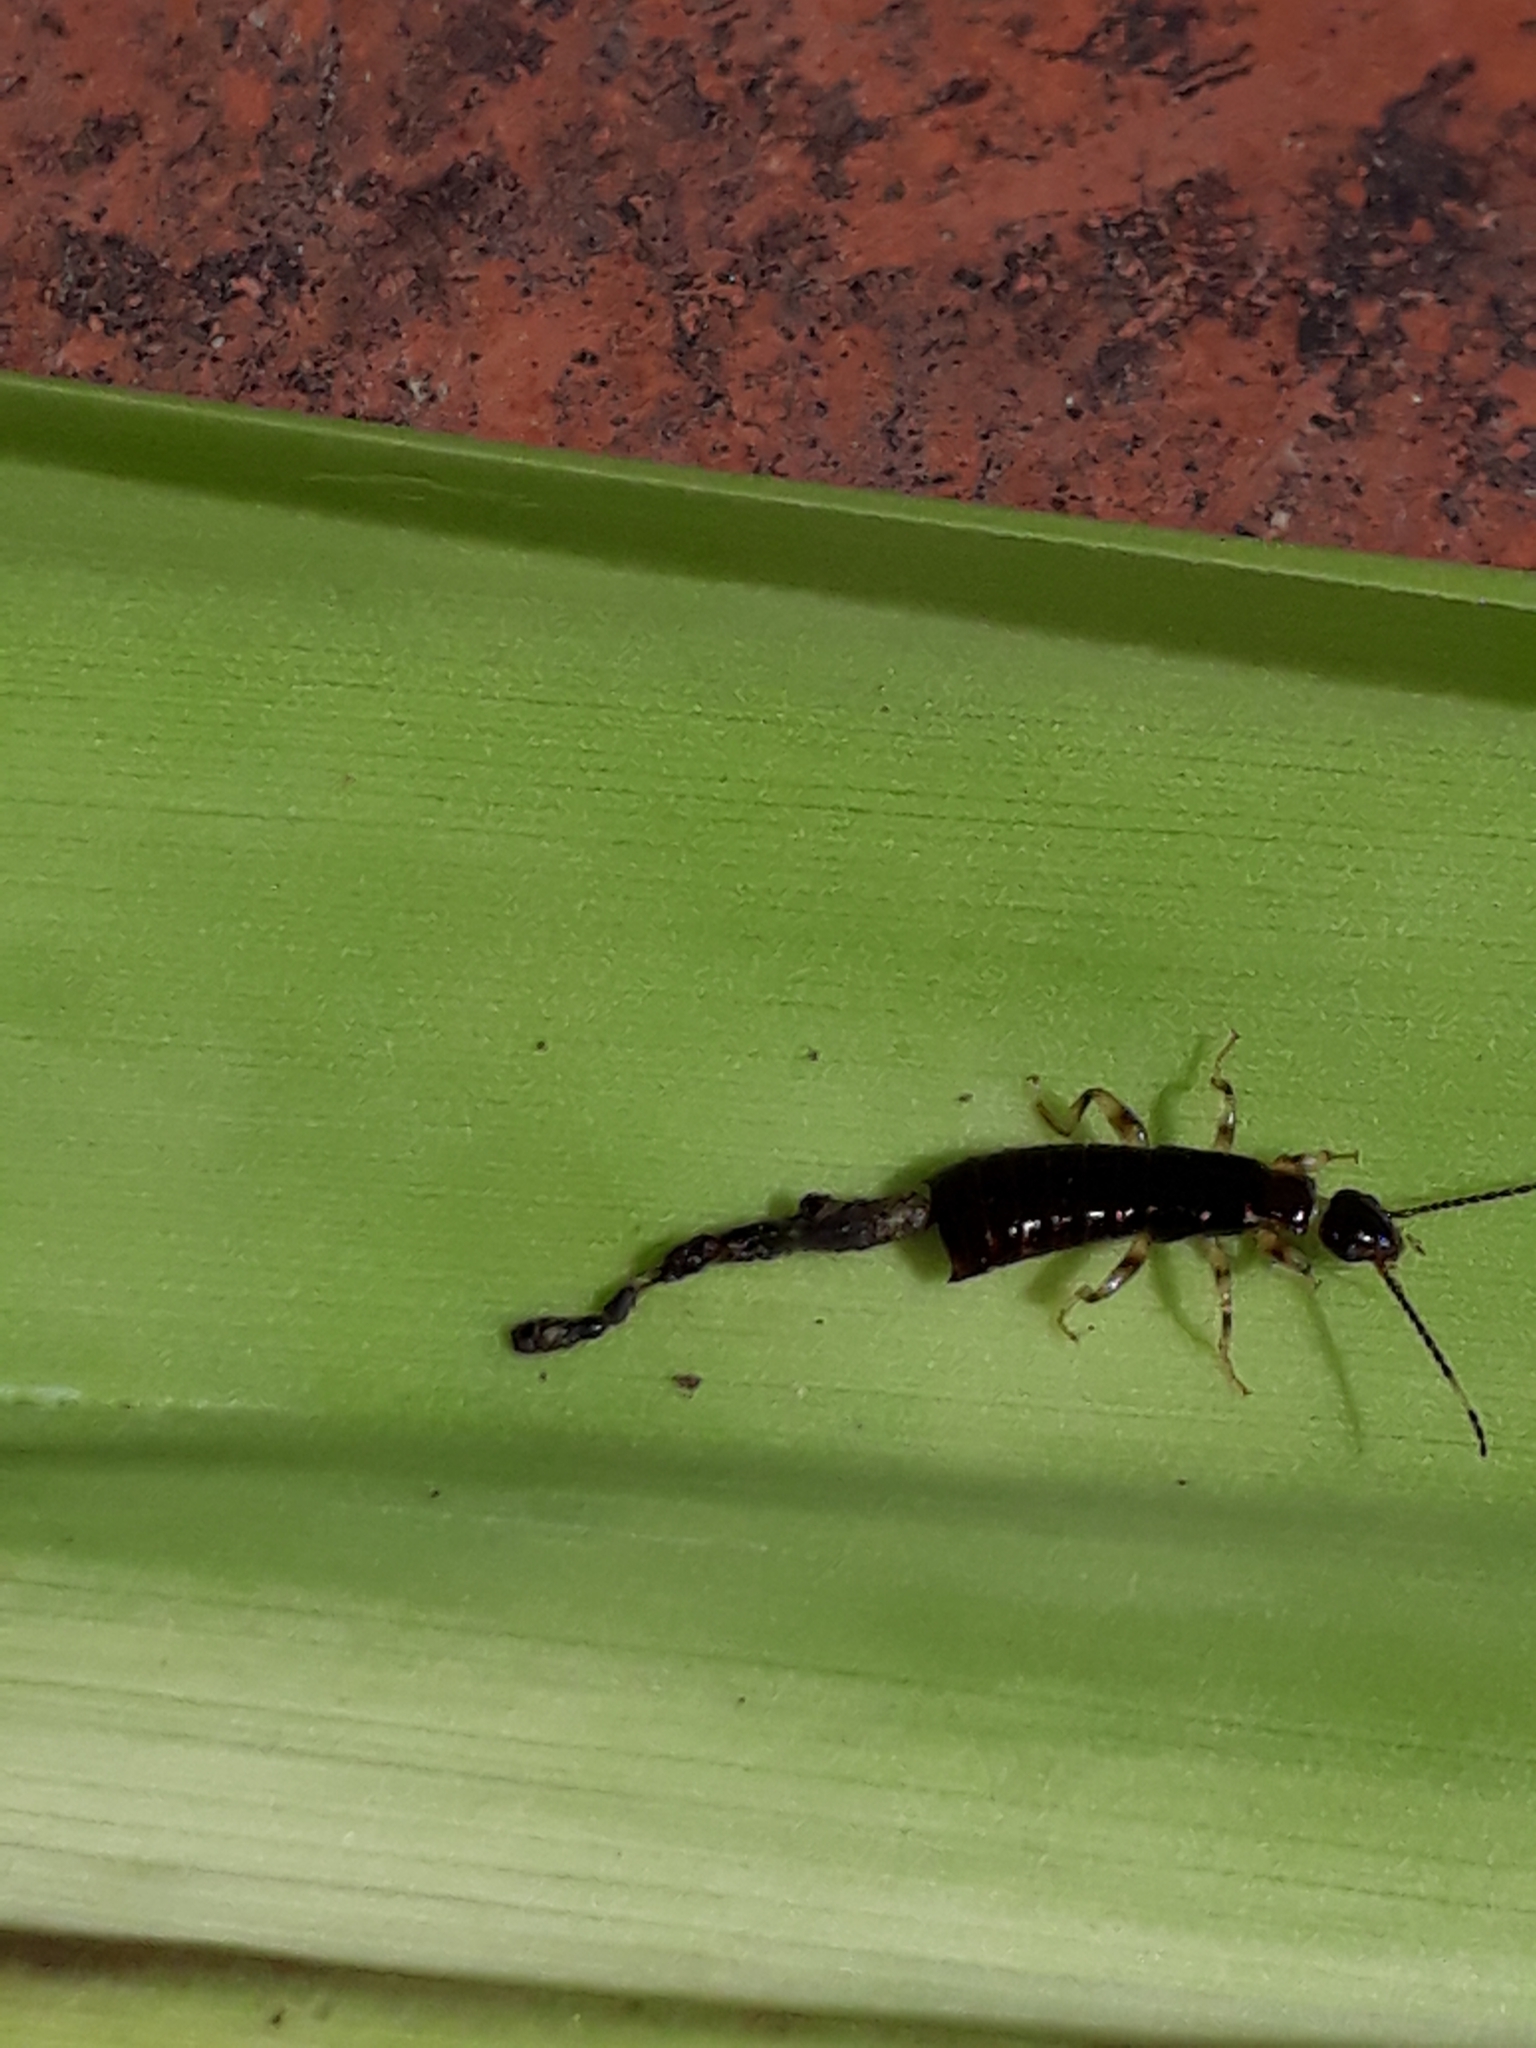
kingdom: Animalia
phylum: Arthropoda
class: Insecta
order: Dermaptera
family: Anisolabididae
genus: Euborellia
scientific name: Euborellia annulipes
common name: Ringlegged earwig
